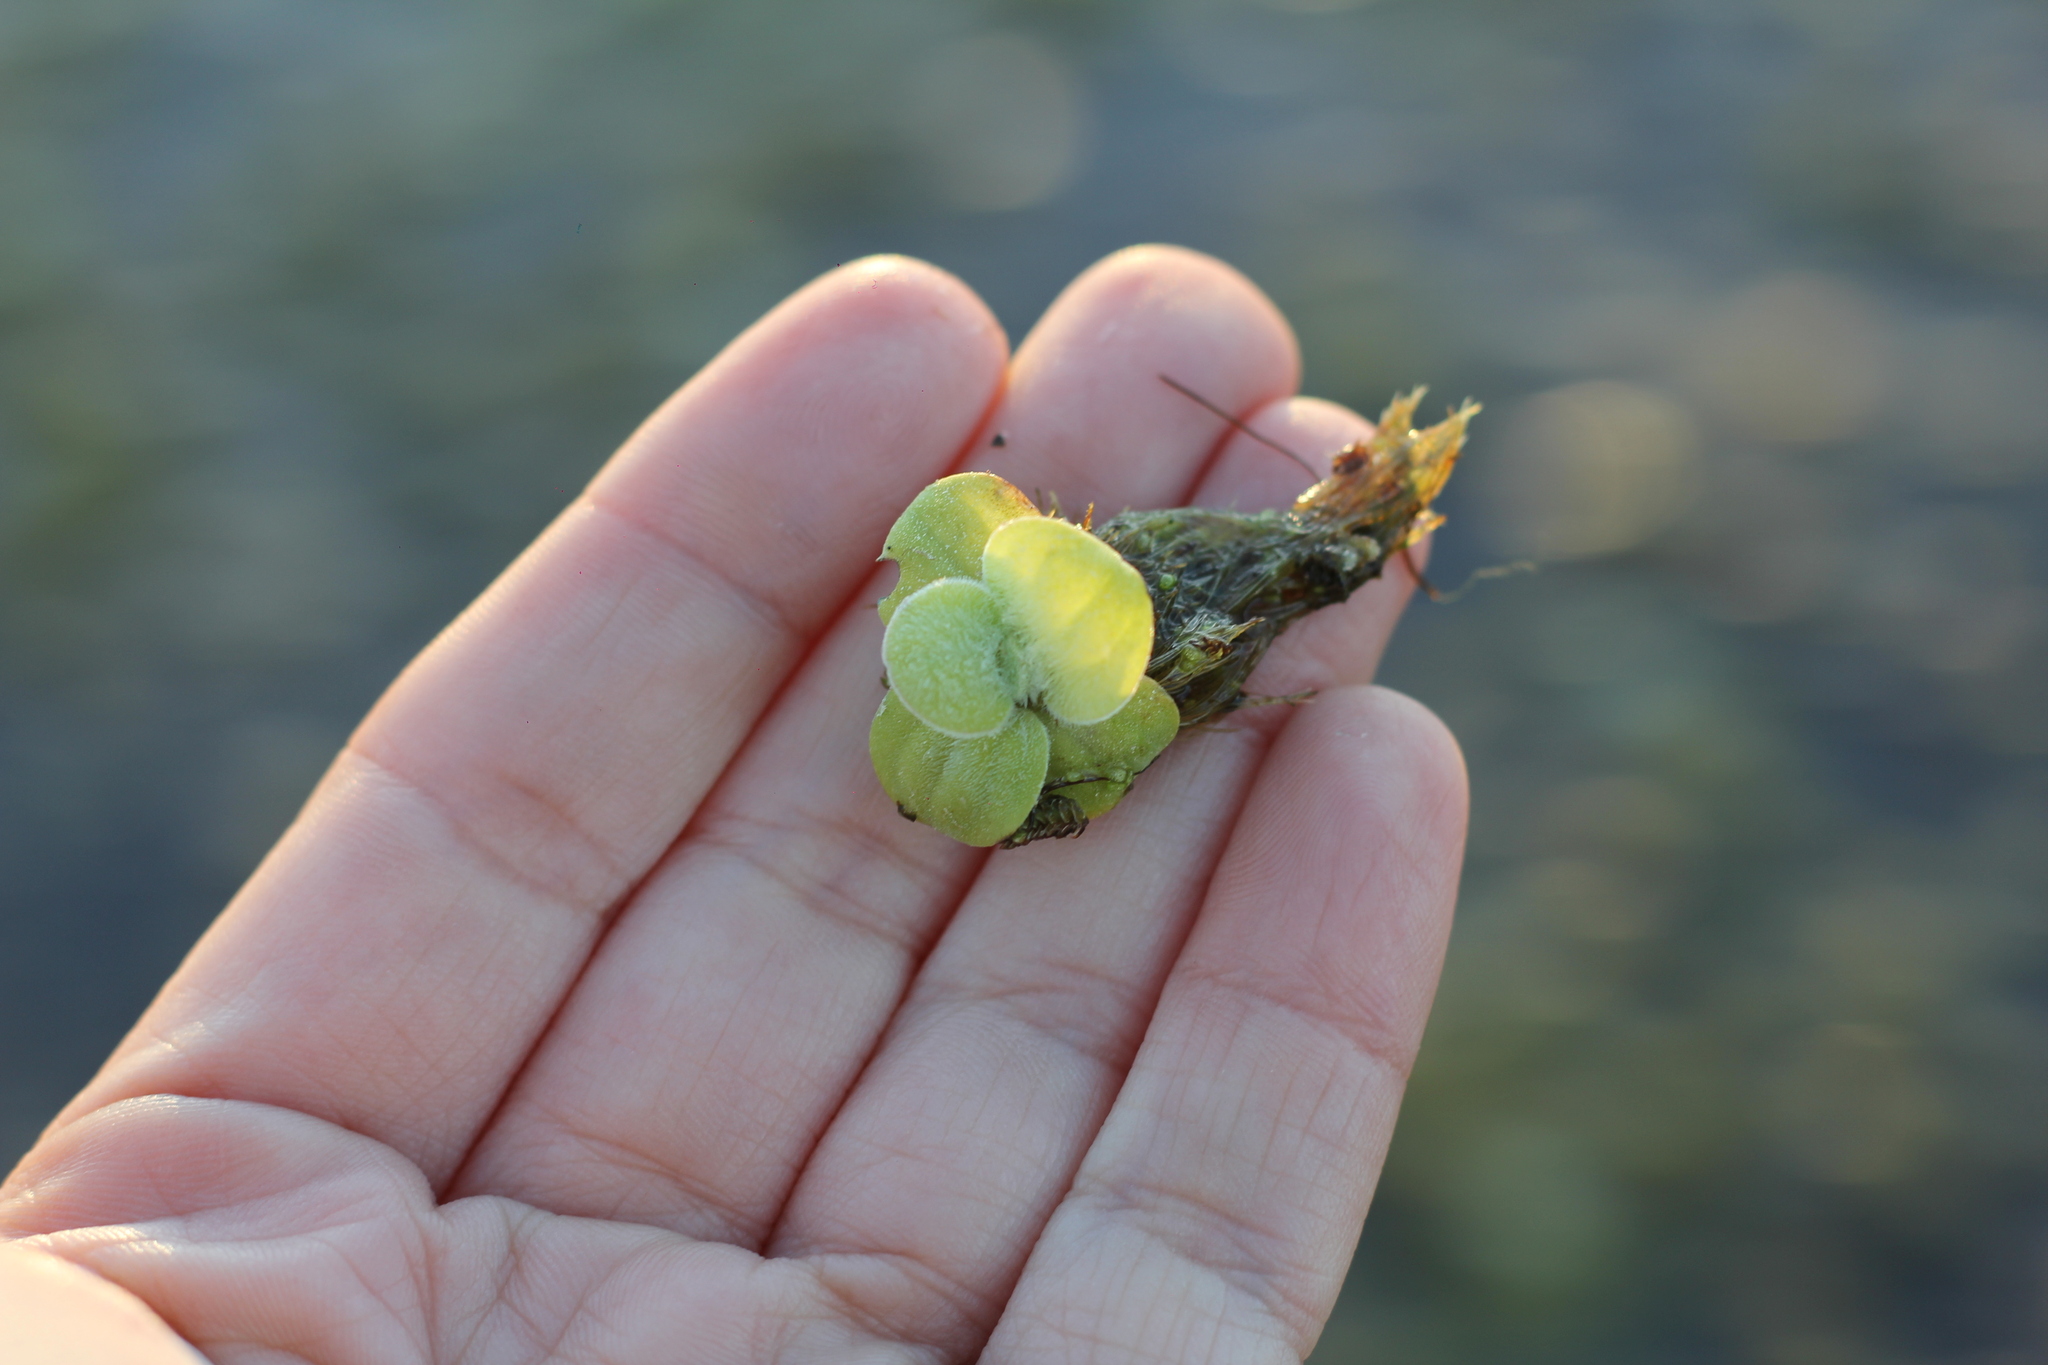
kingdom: Plantae
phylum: Tracheophyta
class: Liliopsida
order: Alismatales
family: Araceae
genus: Pistia
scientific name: Pistia stratiotes
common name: Water lettuce
